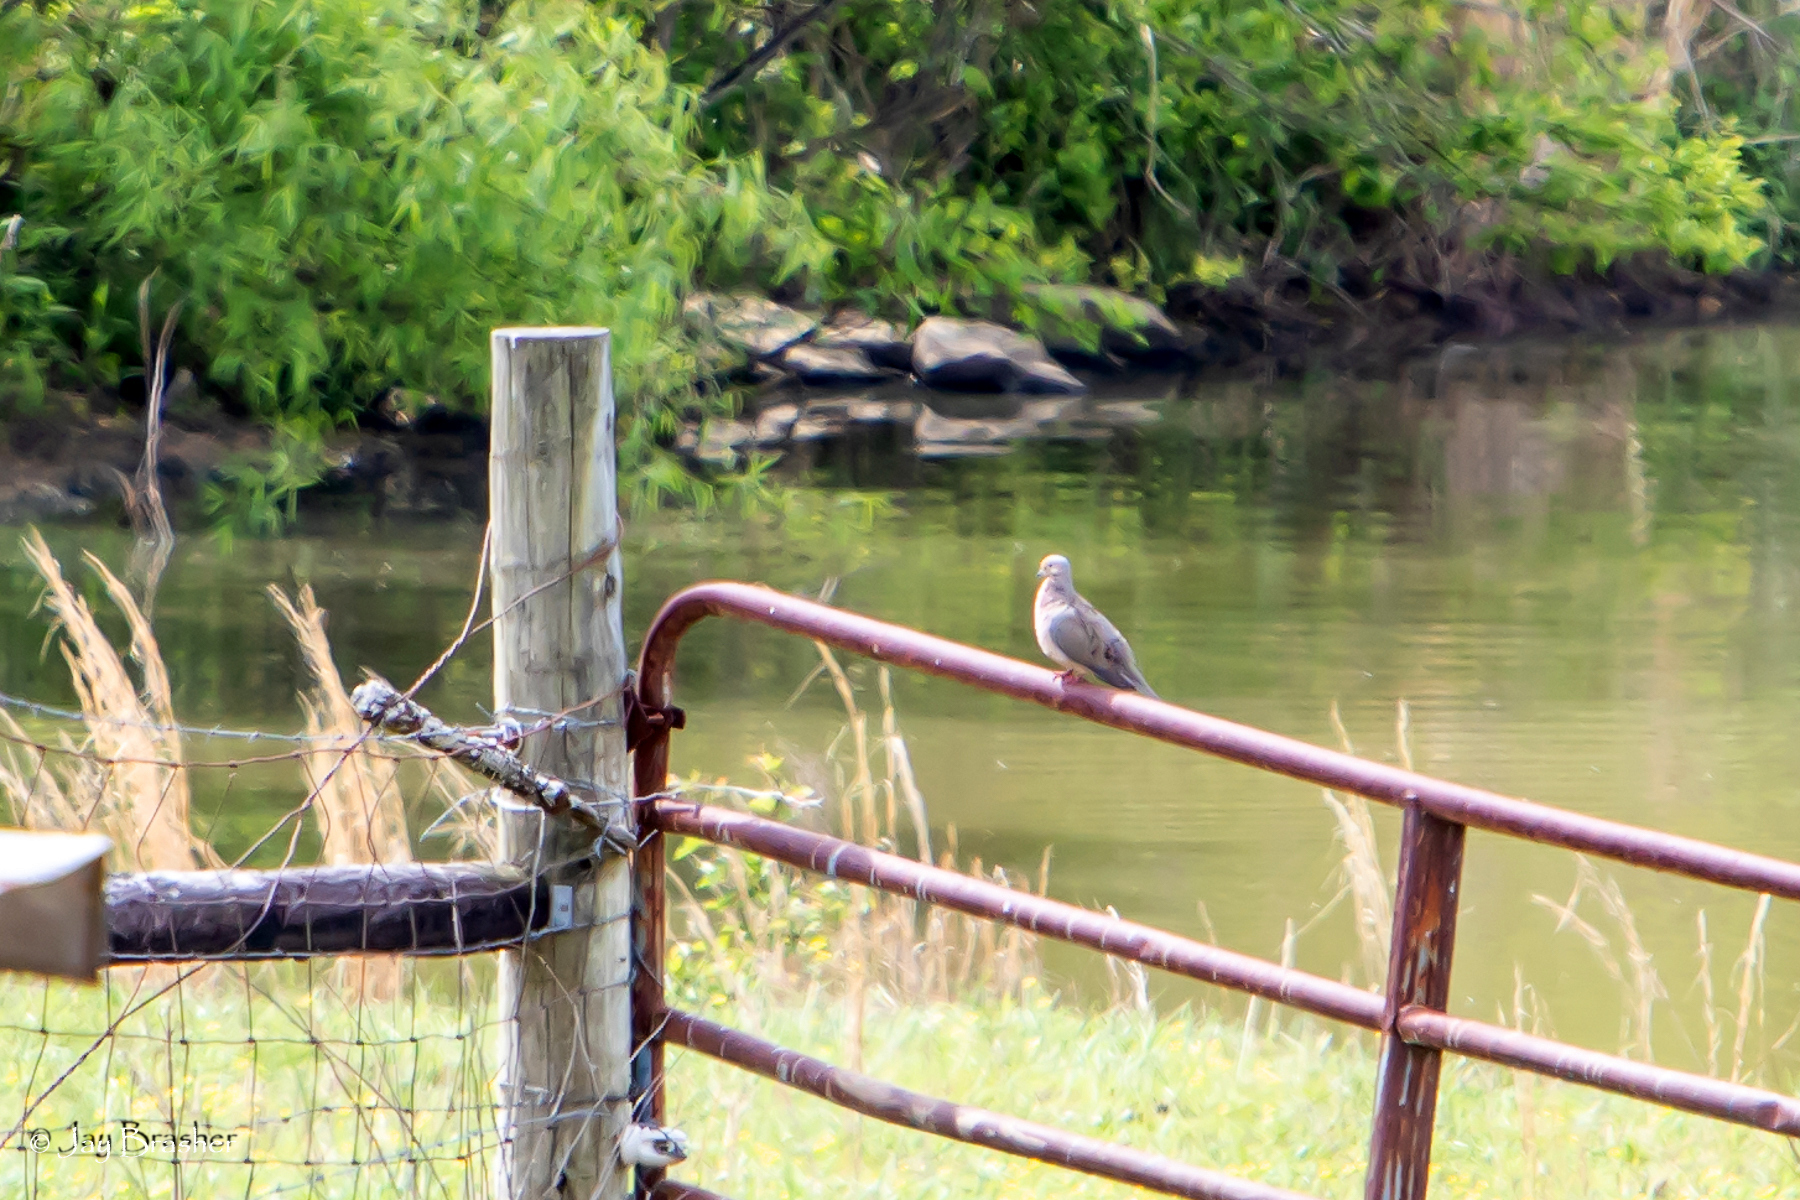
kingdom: Animalia
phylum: Chordata
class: Aves
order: Columbiformes
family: Columbidae
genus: Zenaida
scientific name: Zenaida macroura
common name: Mourning dove
